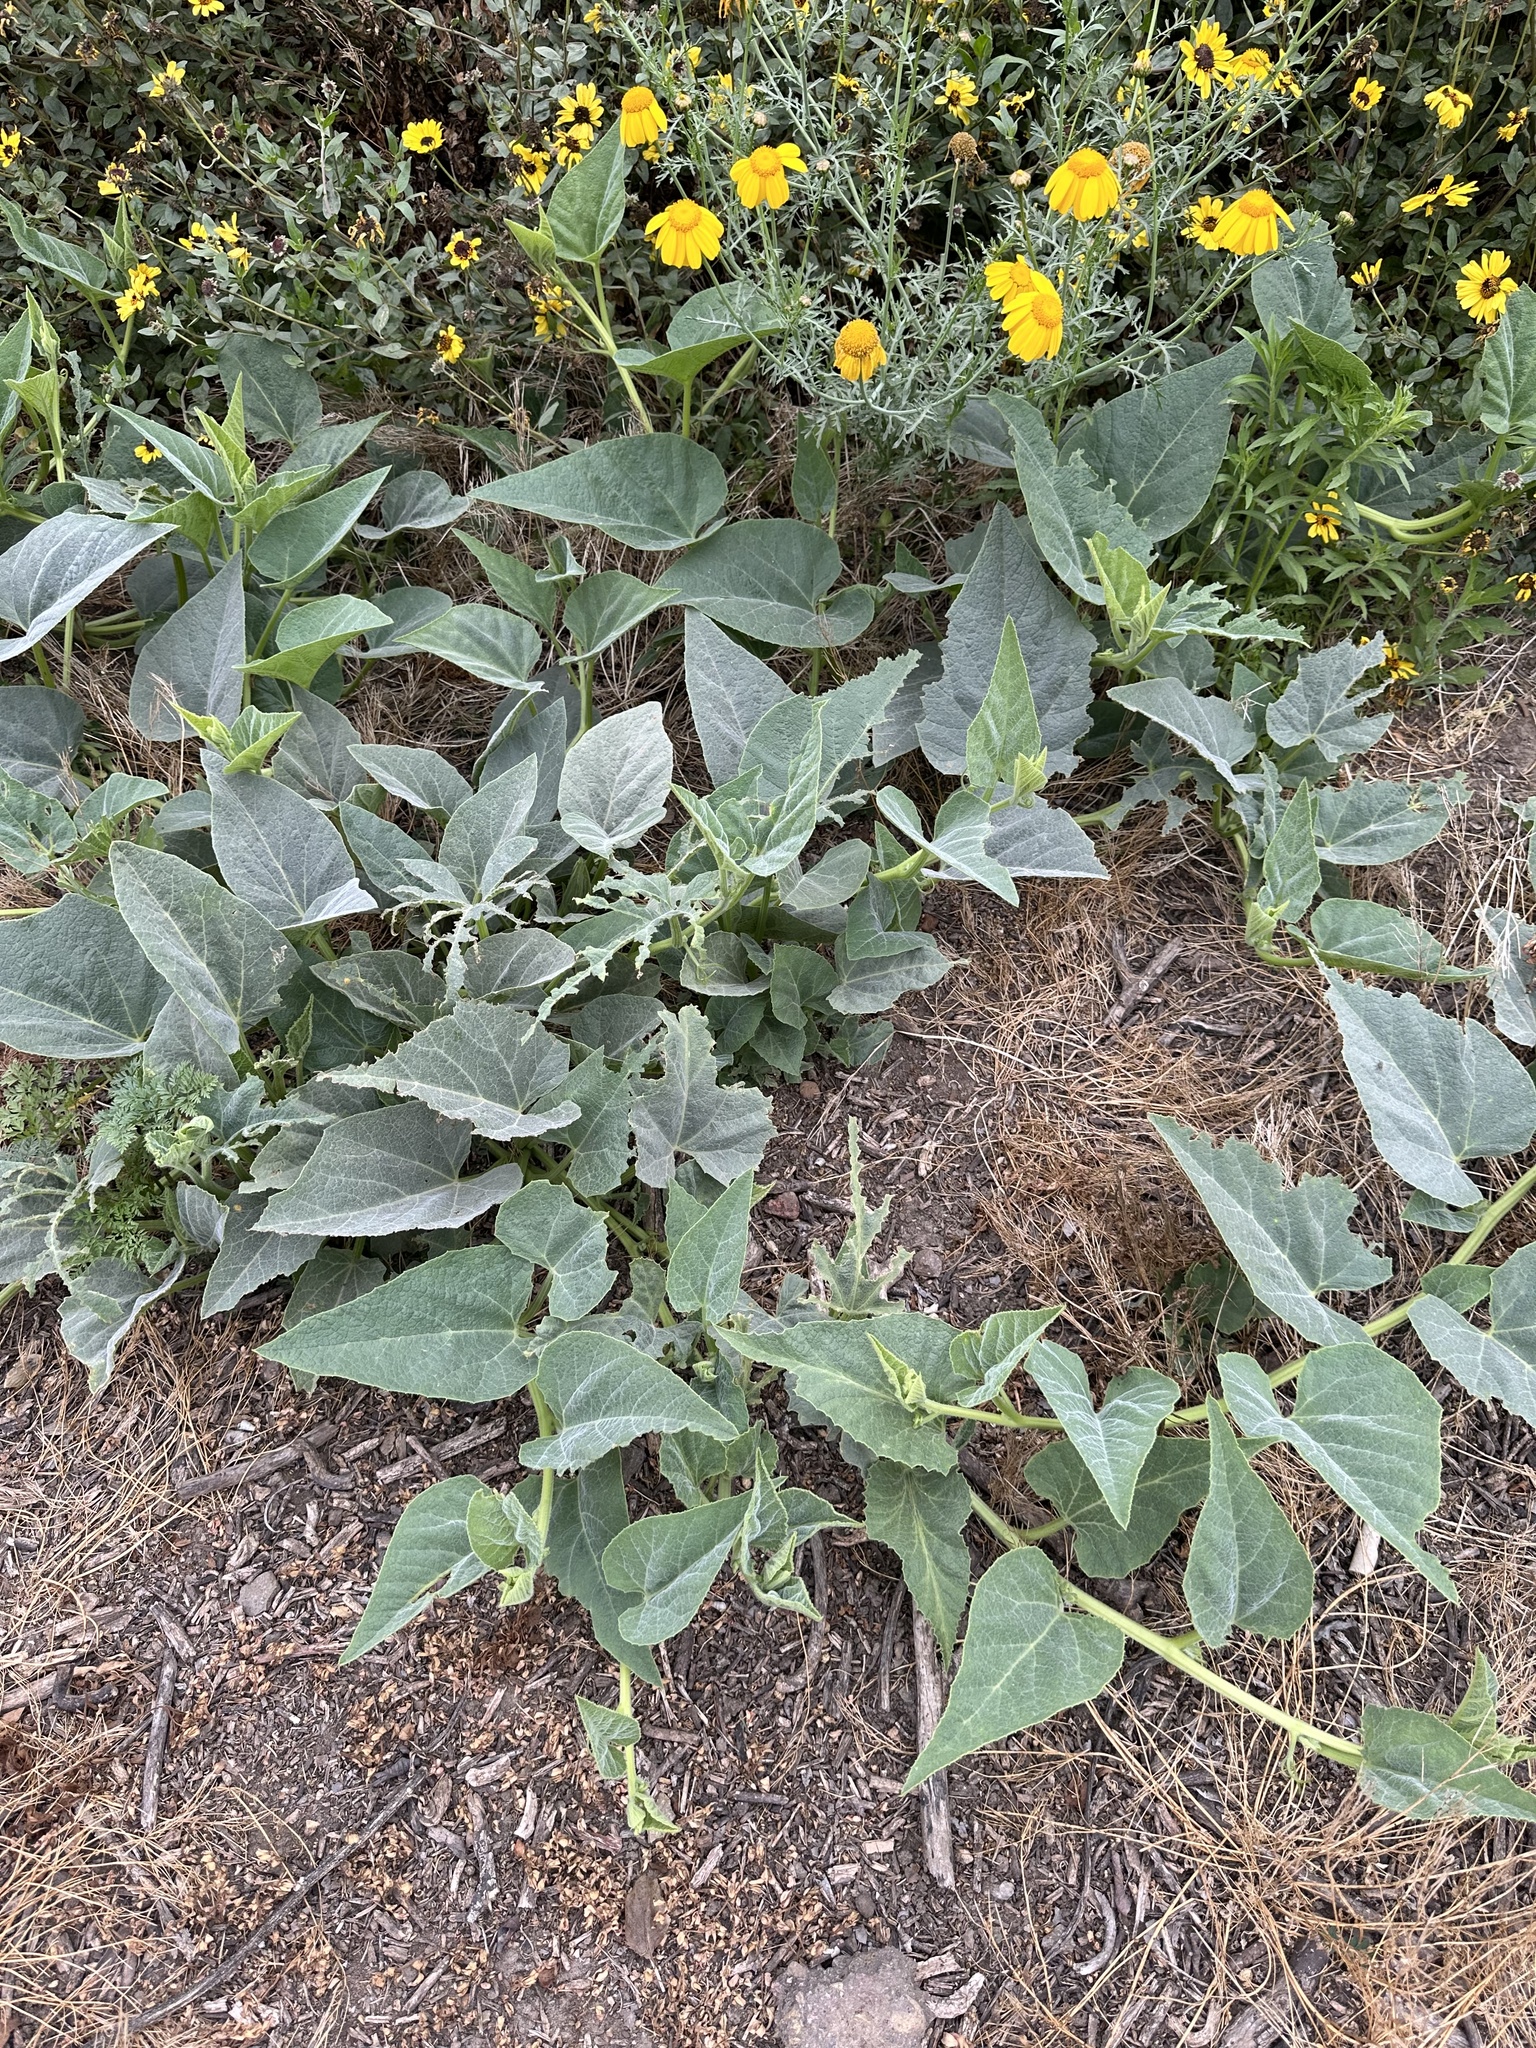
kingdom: Plantae
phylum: Tracheophyta
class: Magnoliopsida
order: Cucurbitales
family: Cucurbitaceae
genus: Cucurbita
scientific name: Cucurbita foetidissima
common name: Buffalo gourd
